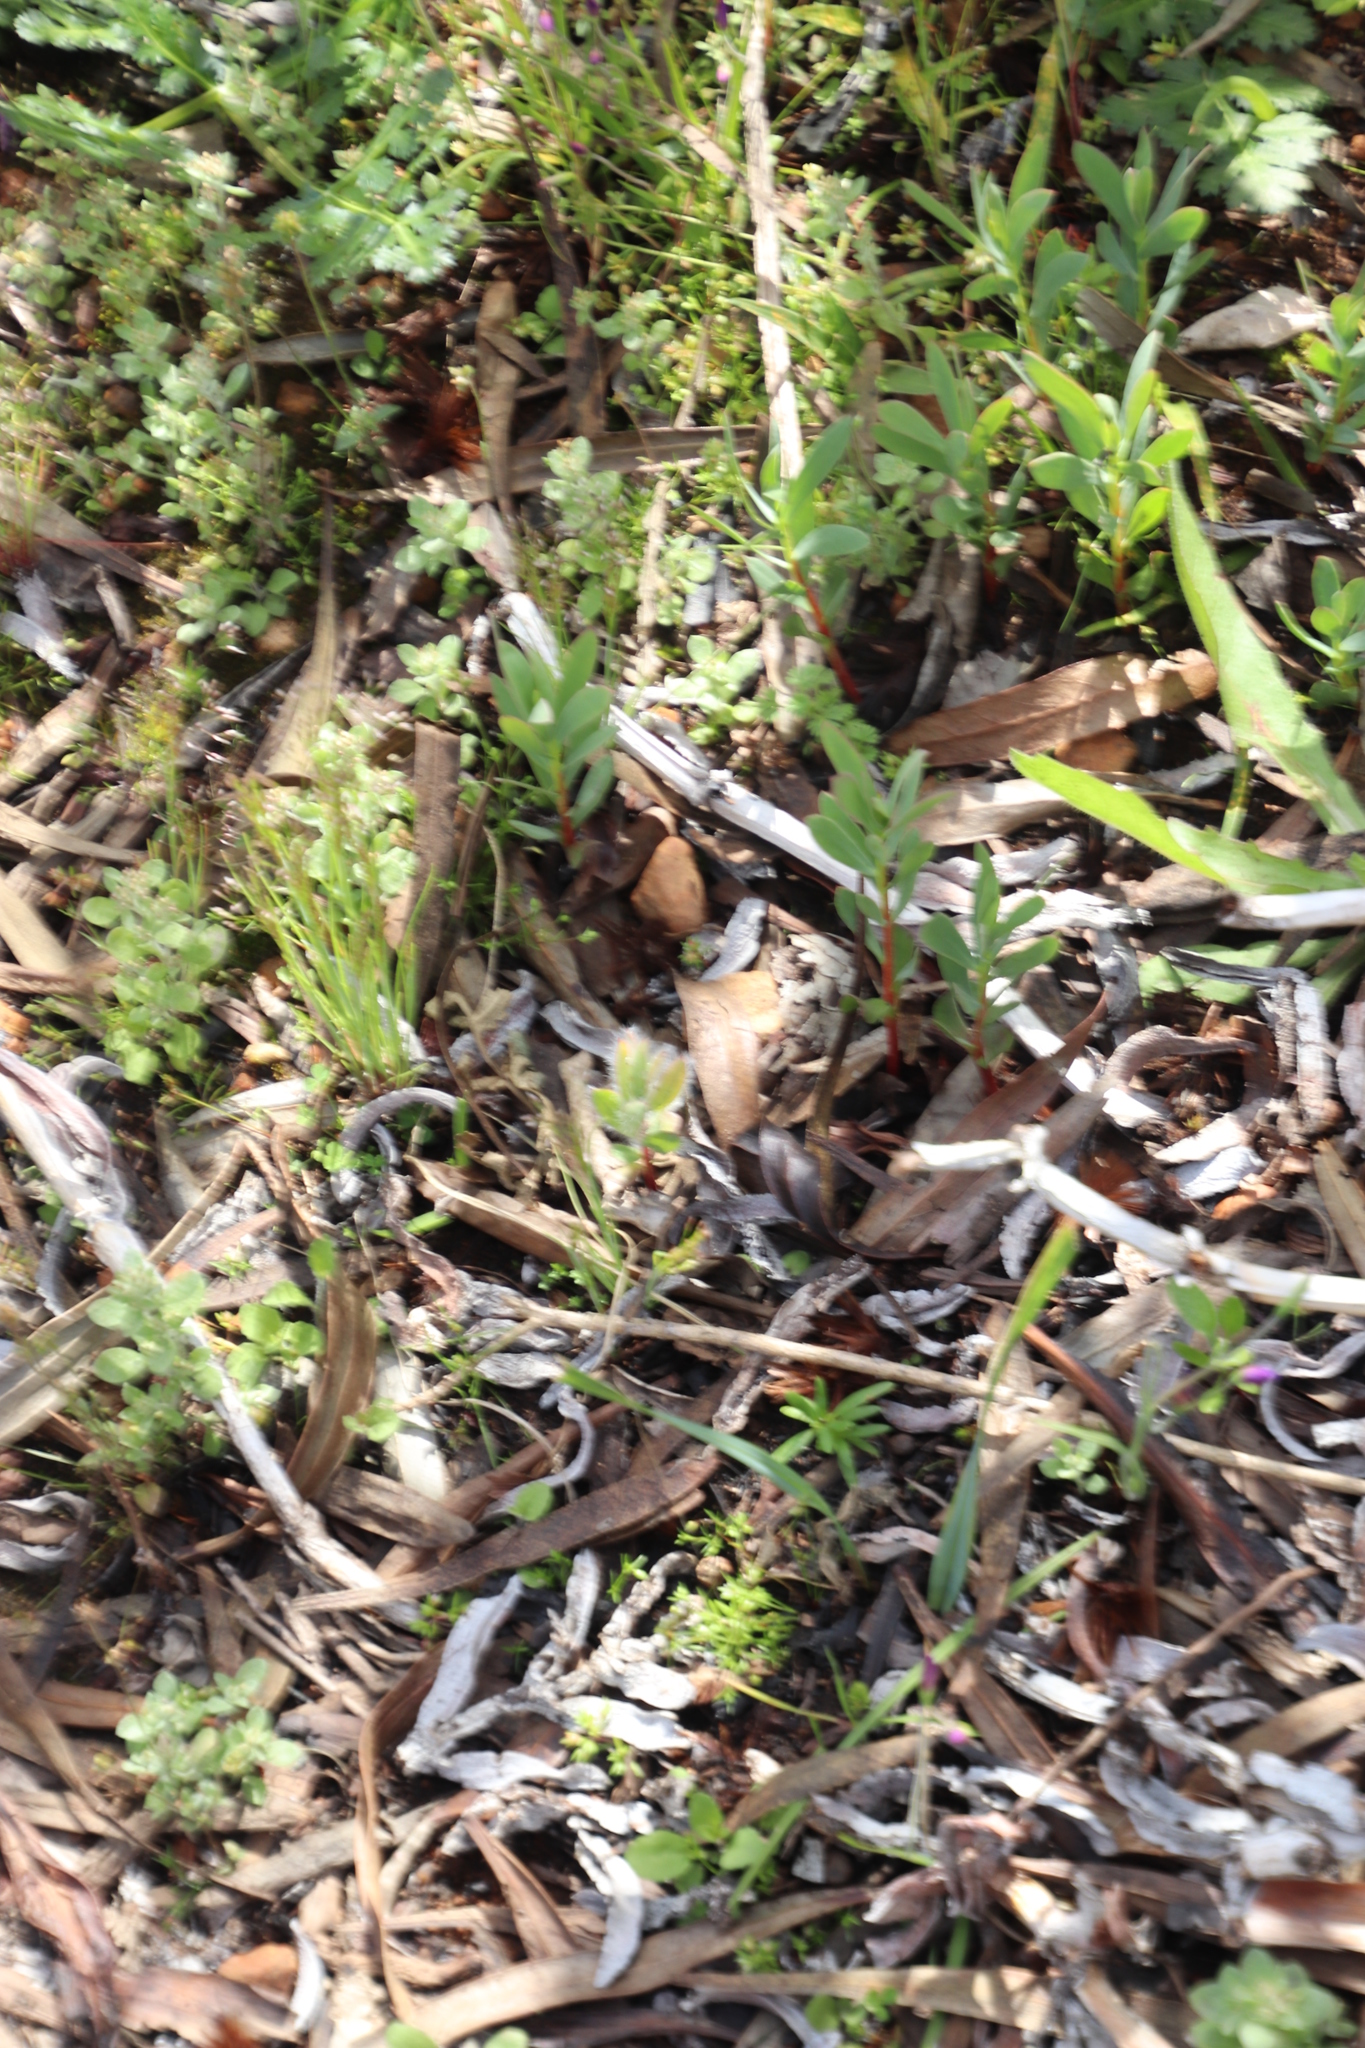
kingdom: Plantae
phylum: Tracheophyta
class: Magnoliopsida
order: Proteales
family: Proteaceae
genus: Protea
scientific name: Protea repens
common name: Sugarbush
